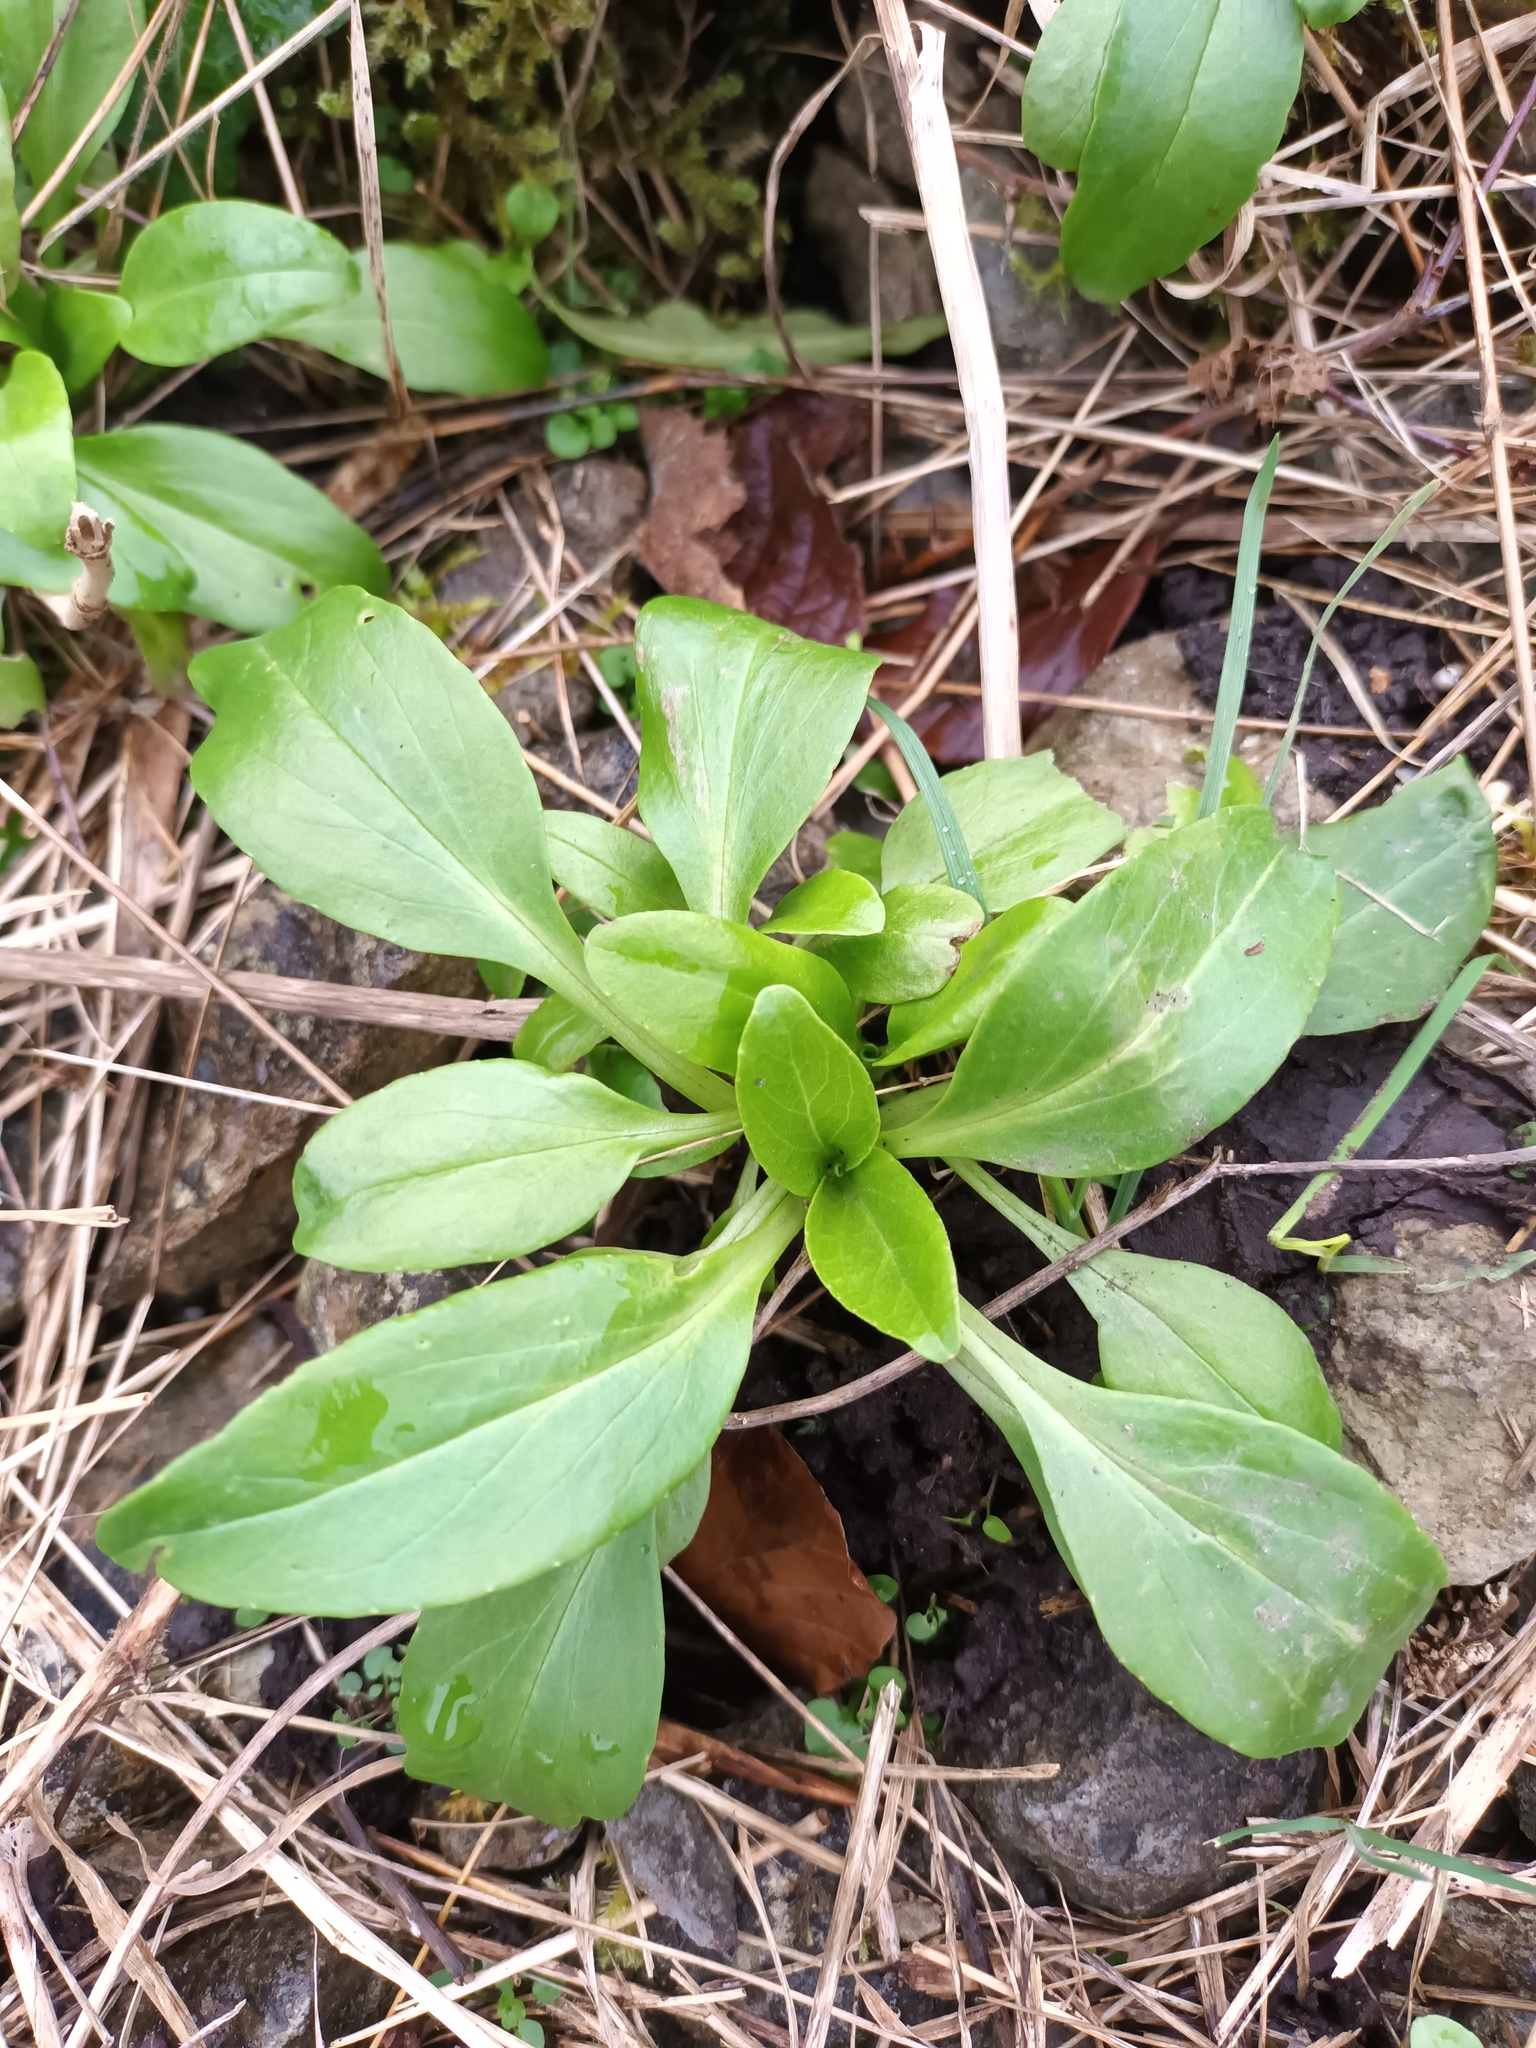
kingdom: Plantae
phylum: Tracheophyta
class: Magnoliopsida
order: Dipsacales
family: Caprifoliaceae
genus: Centranthus
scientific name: Centranthus ruber
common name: Red valerian
